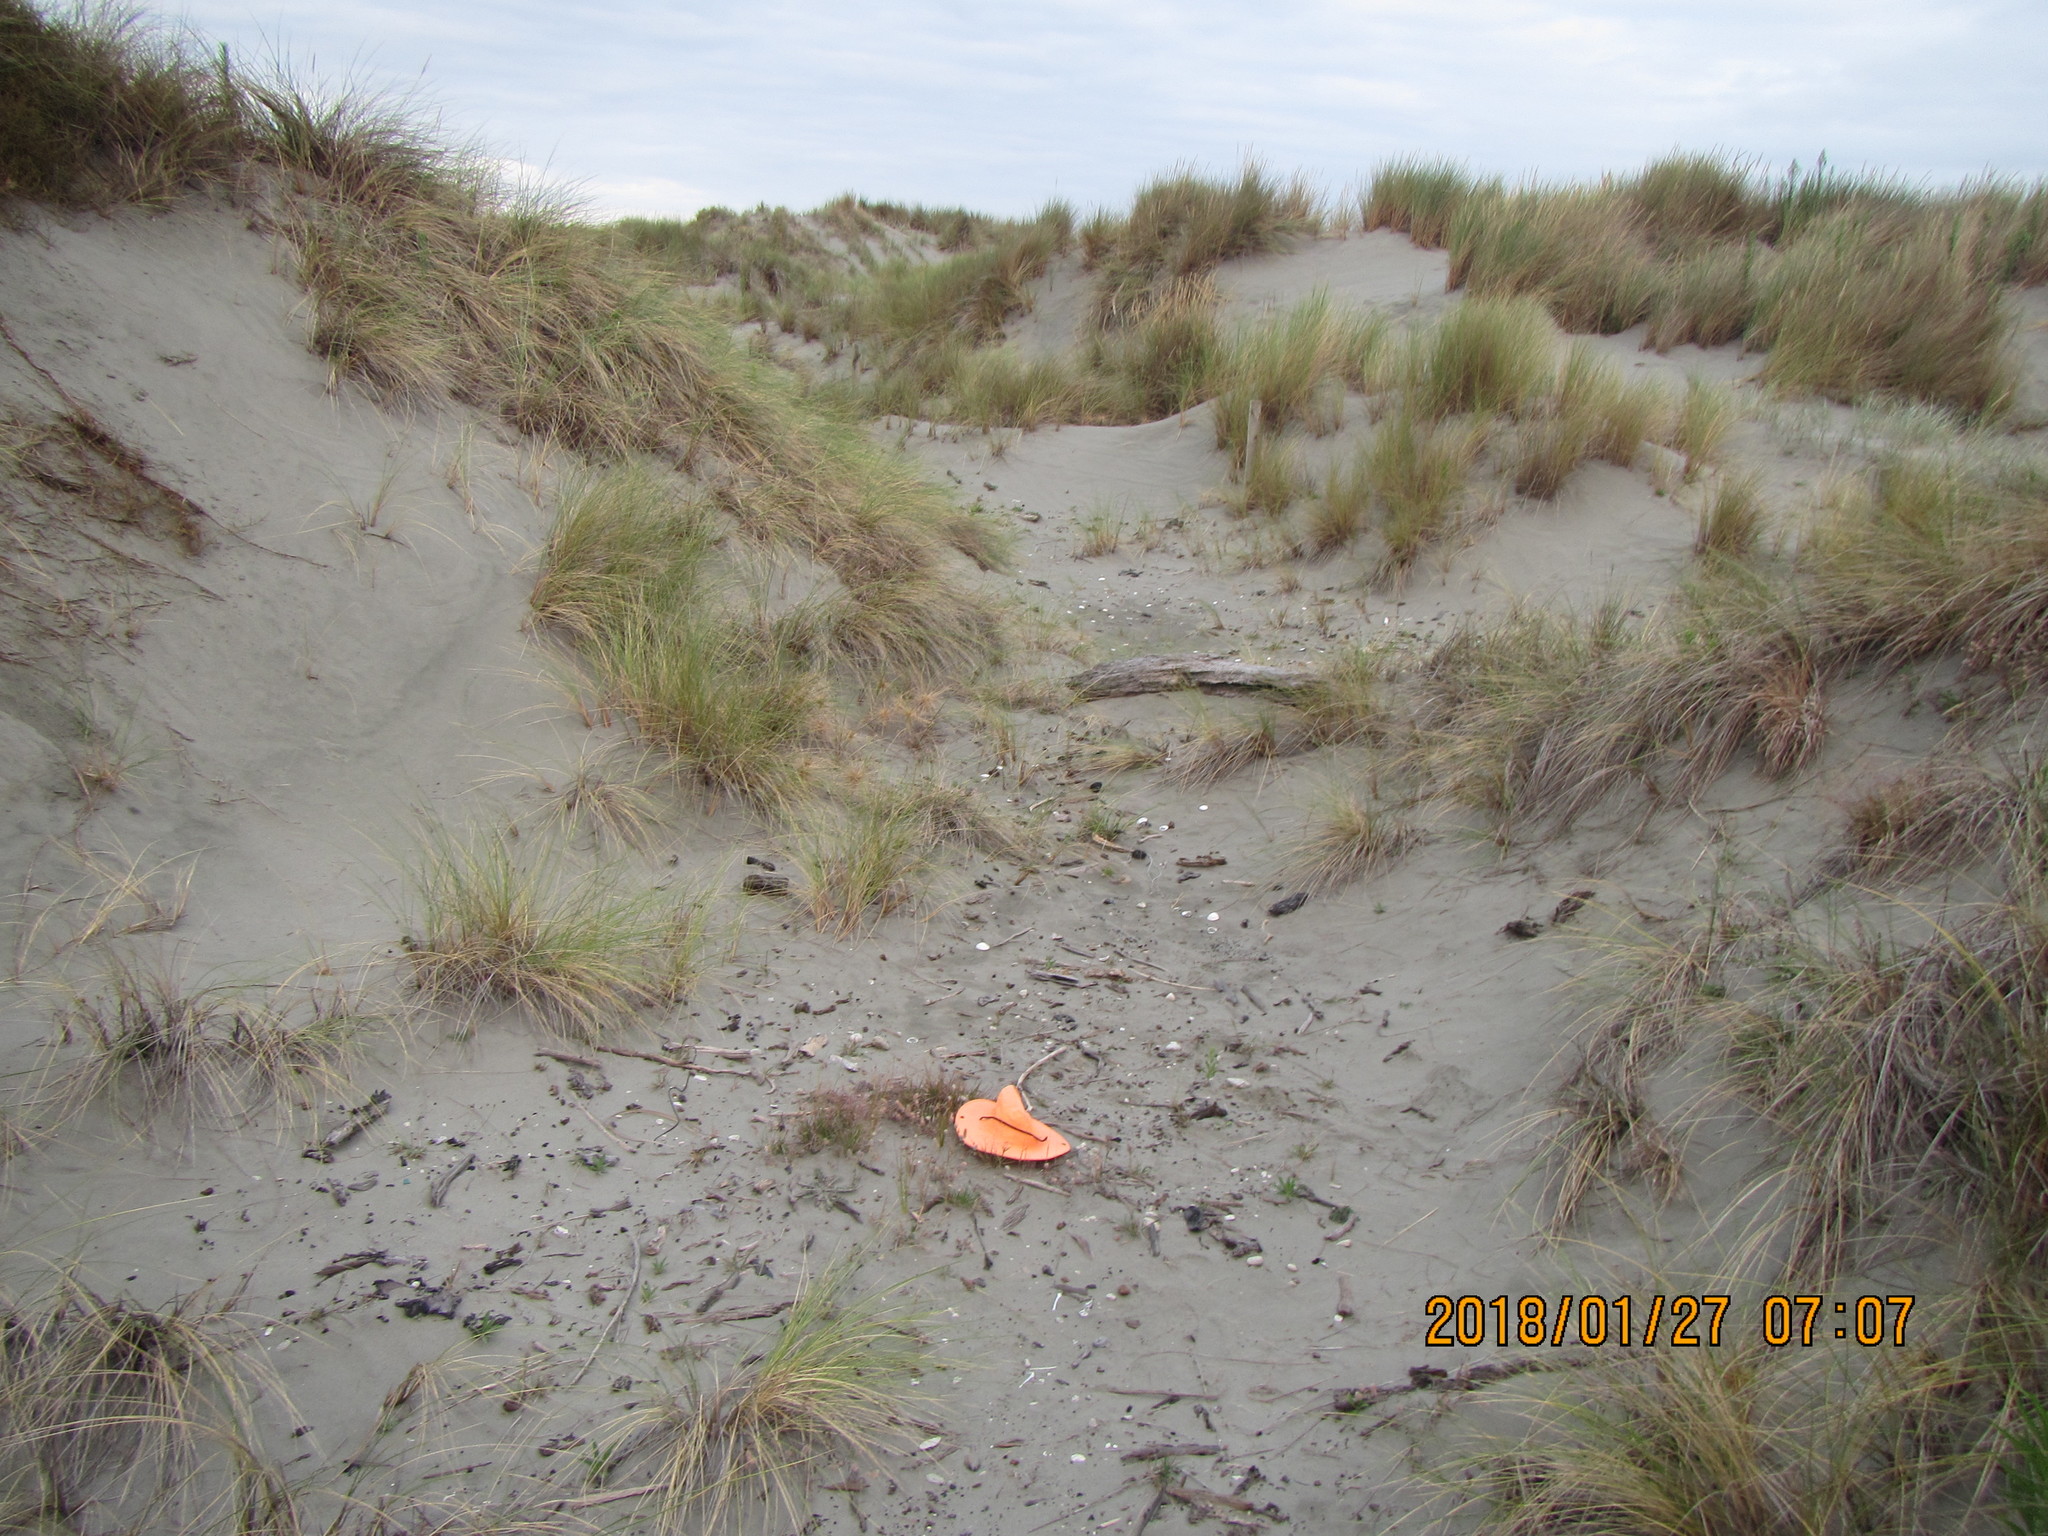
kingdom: Animalia
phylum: Mollusca
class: Gastropoda
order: Stylommatophora
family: Geomitridae
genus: Xeroplexa
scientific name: Xeroplexa intersecta
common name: Wrinkled snail
